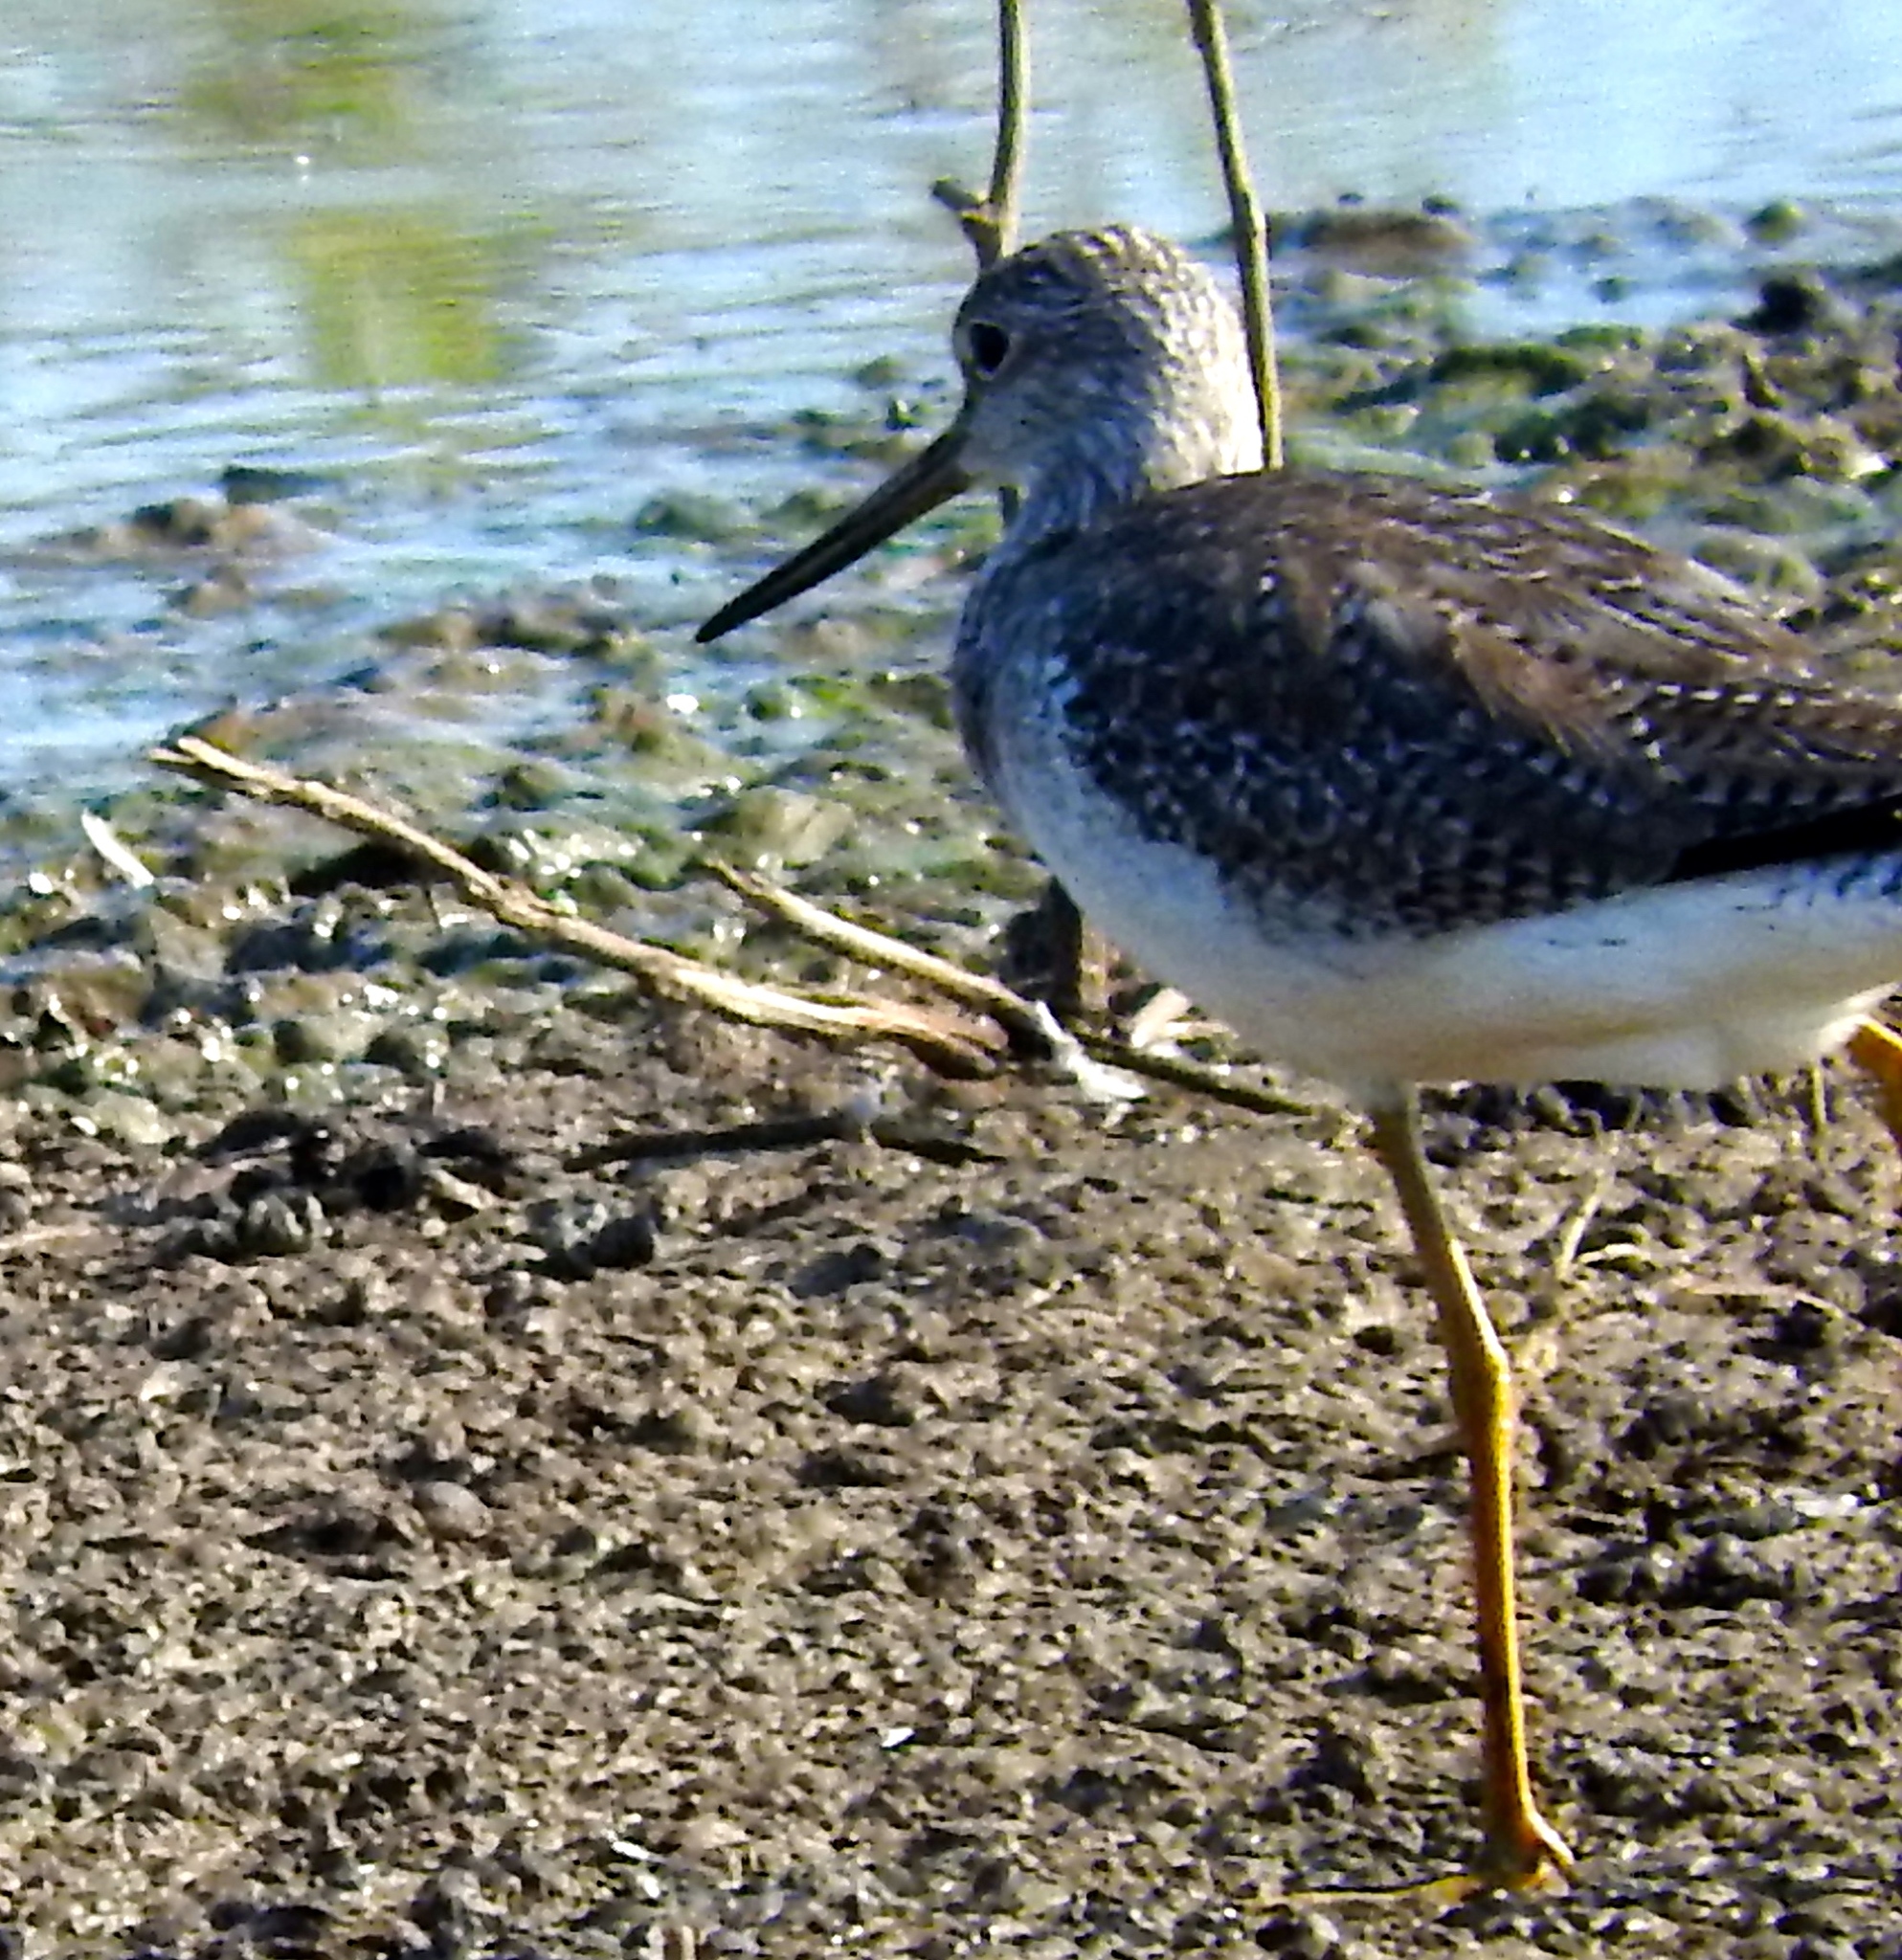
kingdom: Animalia
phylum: Chordata
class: Aves
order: Charadriiformes
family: Scolopacidae
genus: Tringa
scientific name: Tringa melanoleuca
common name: Greater yellowlegs
